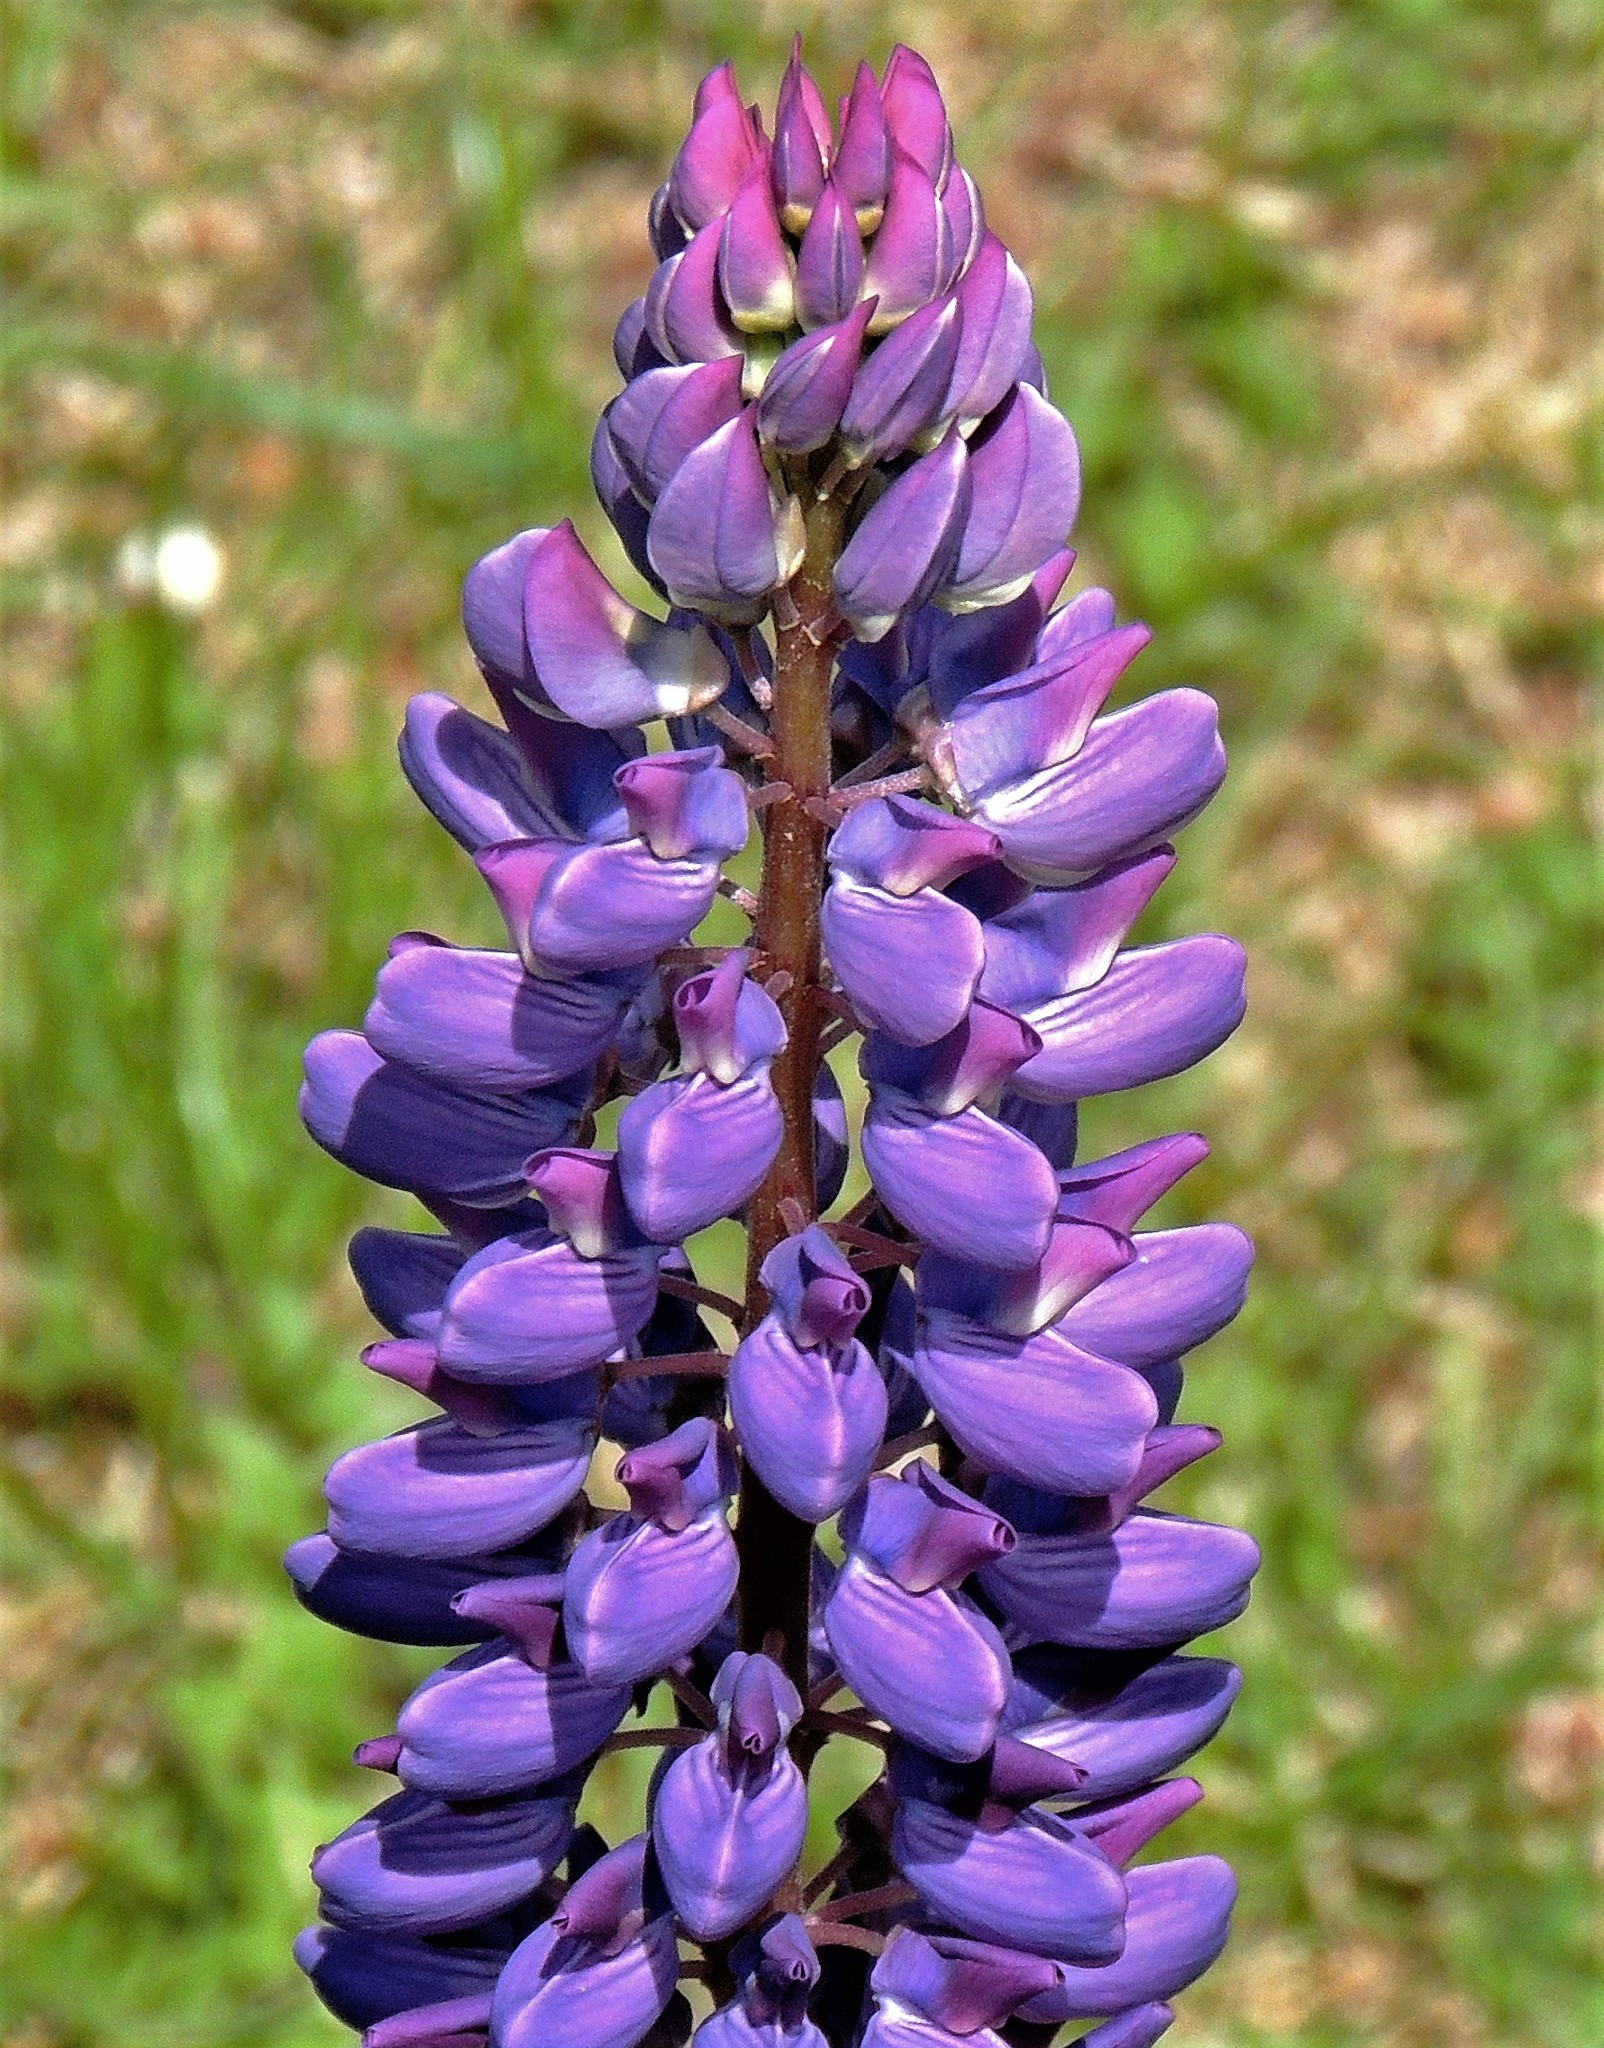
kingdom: Plantae
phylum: Tracheophyta
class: Magnoliopsida
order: Fabales
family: Fabaceae
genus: Lupinus
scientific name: Lupinus polyphyllus
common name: Garden lupin
